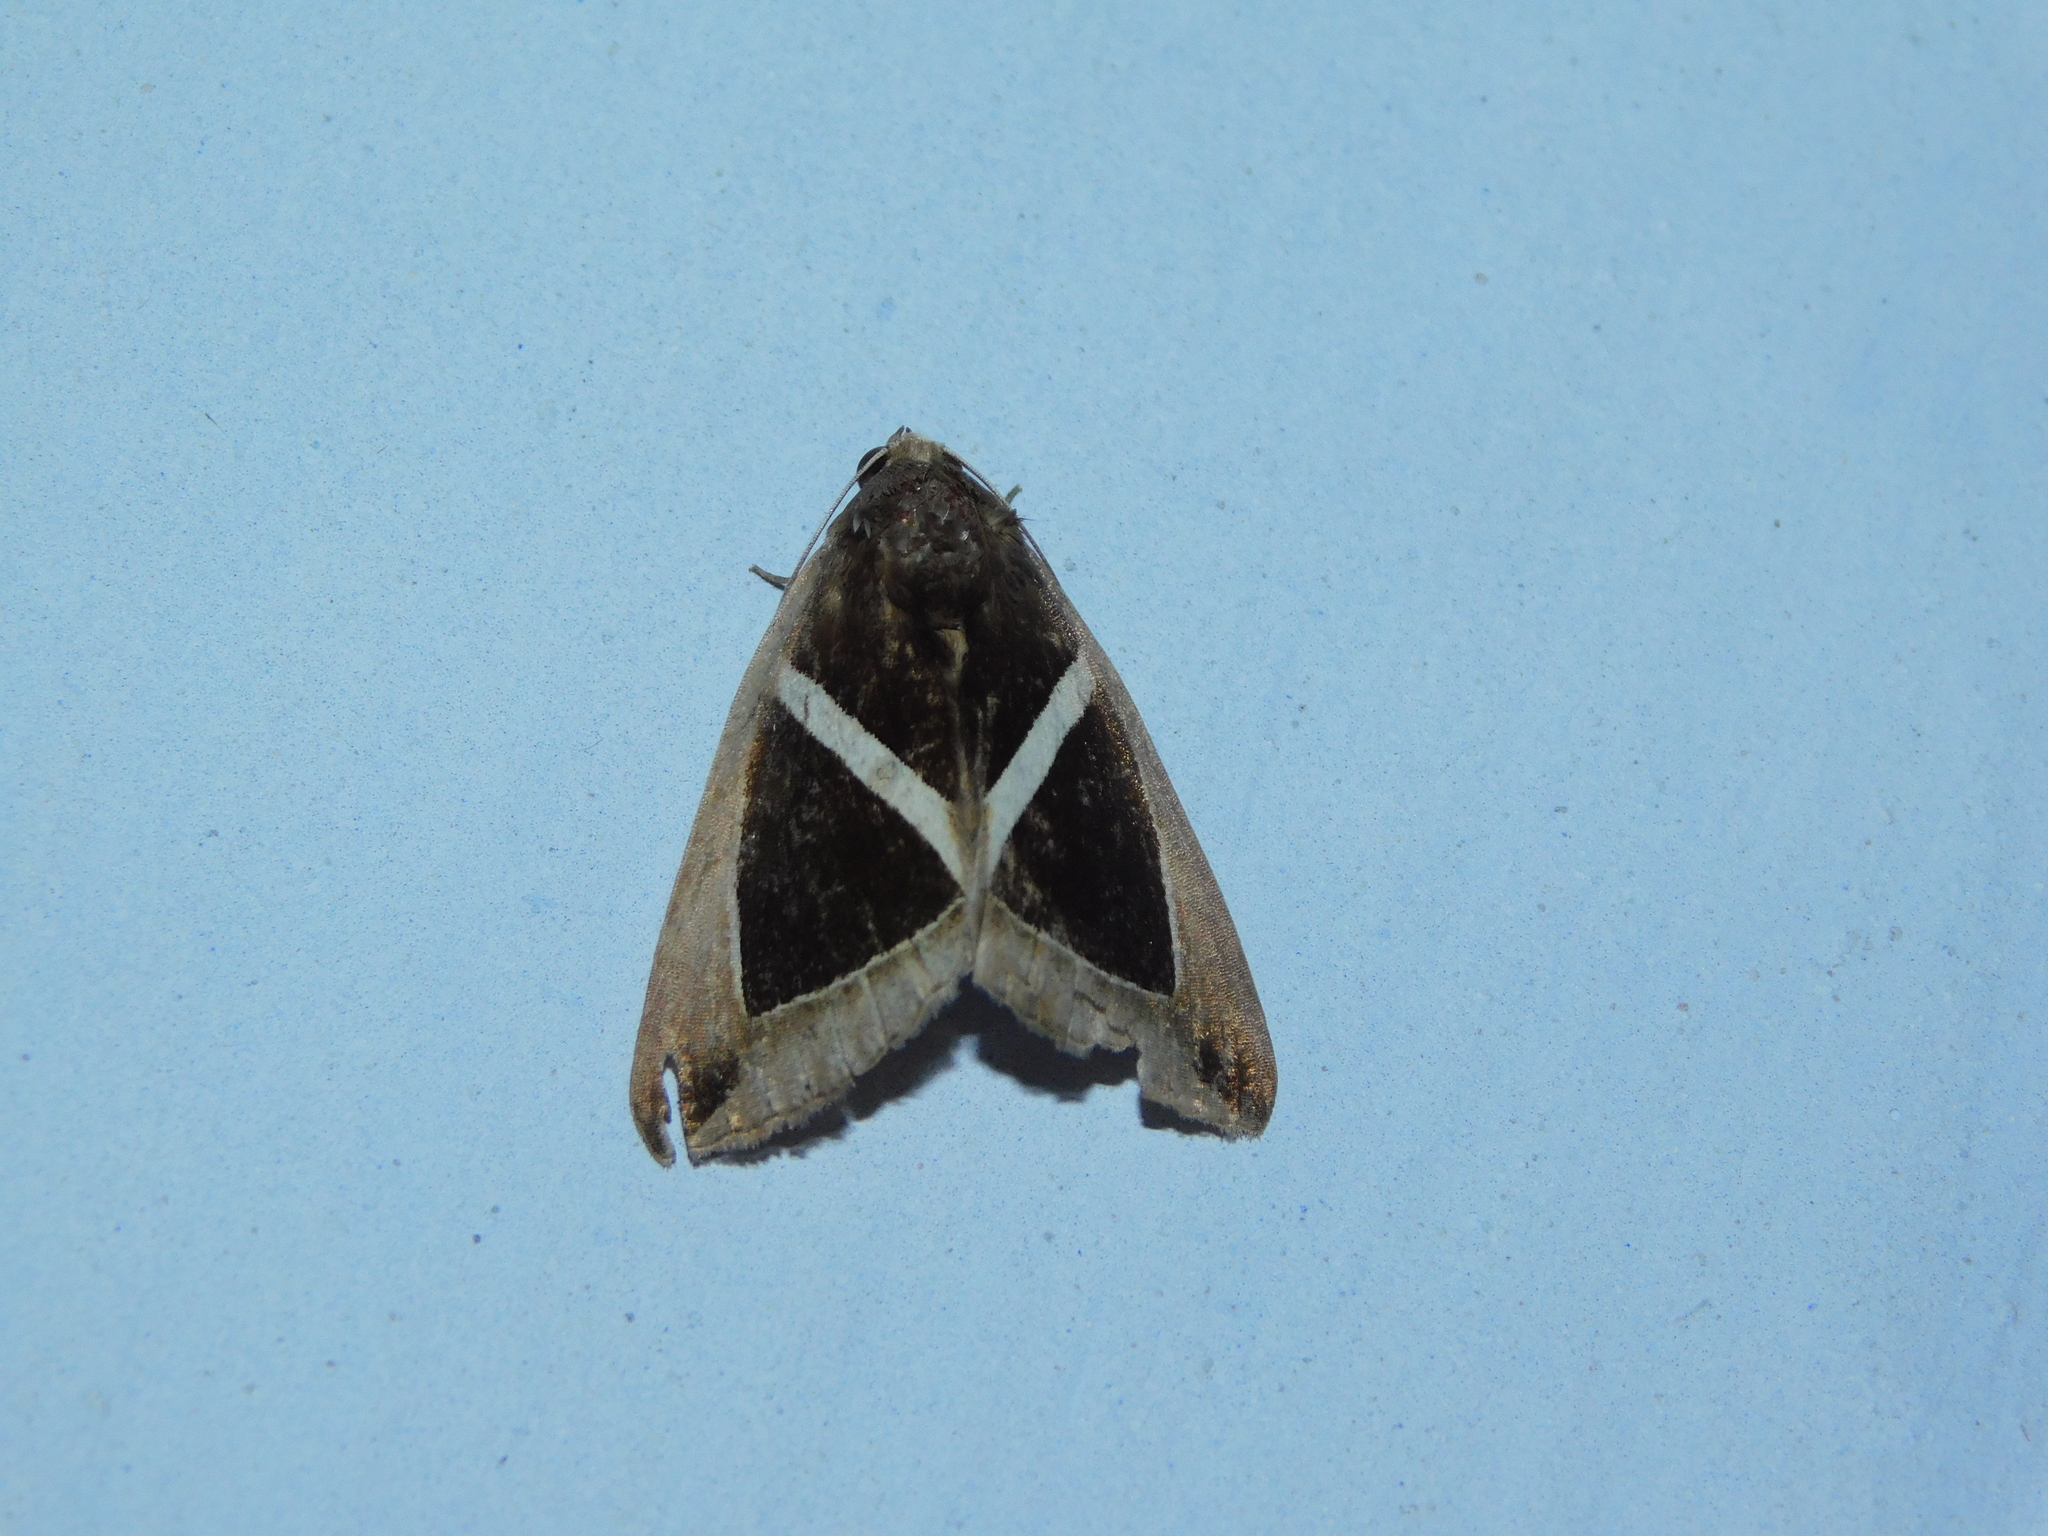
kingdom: Animalia
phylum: Arthropoda
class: Insecta
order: Lepidoptera
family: Erebidae
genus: Chalciope
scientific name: Chalciope mygdon
